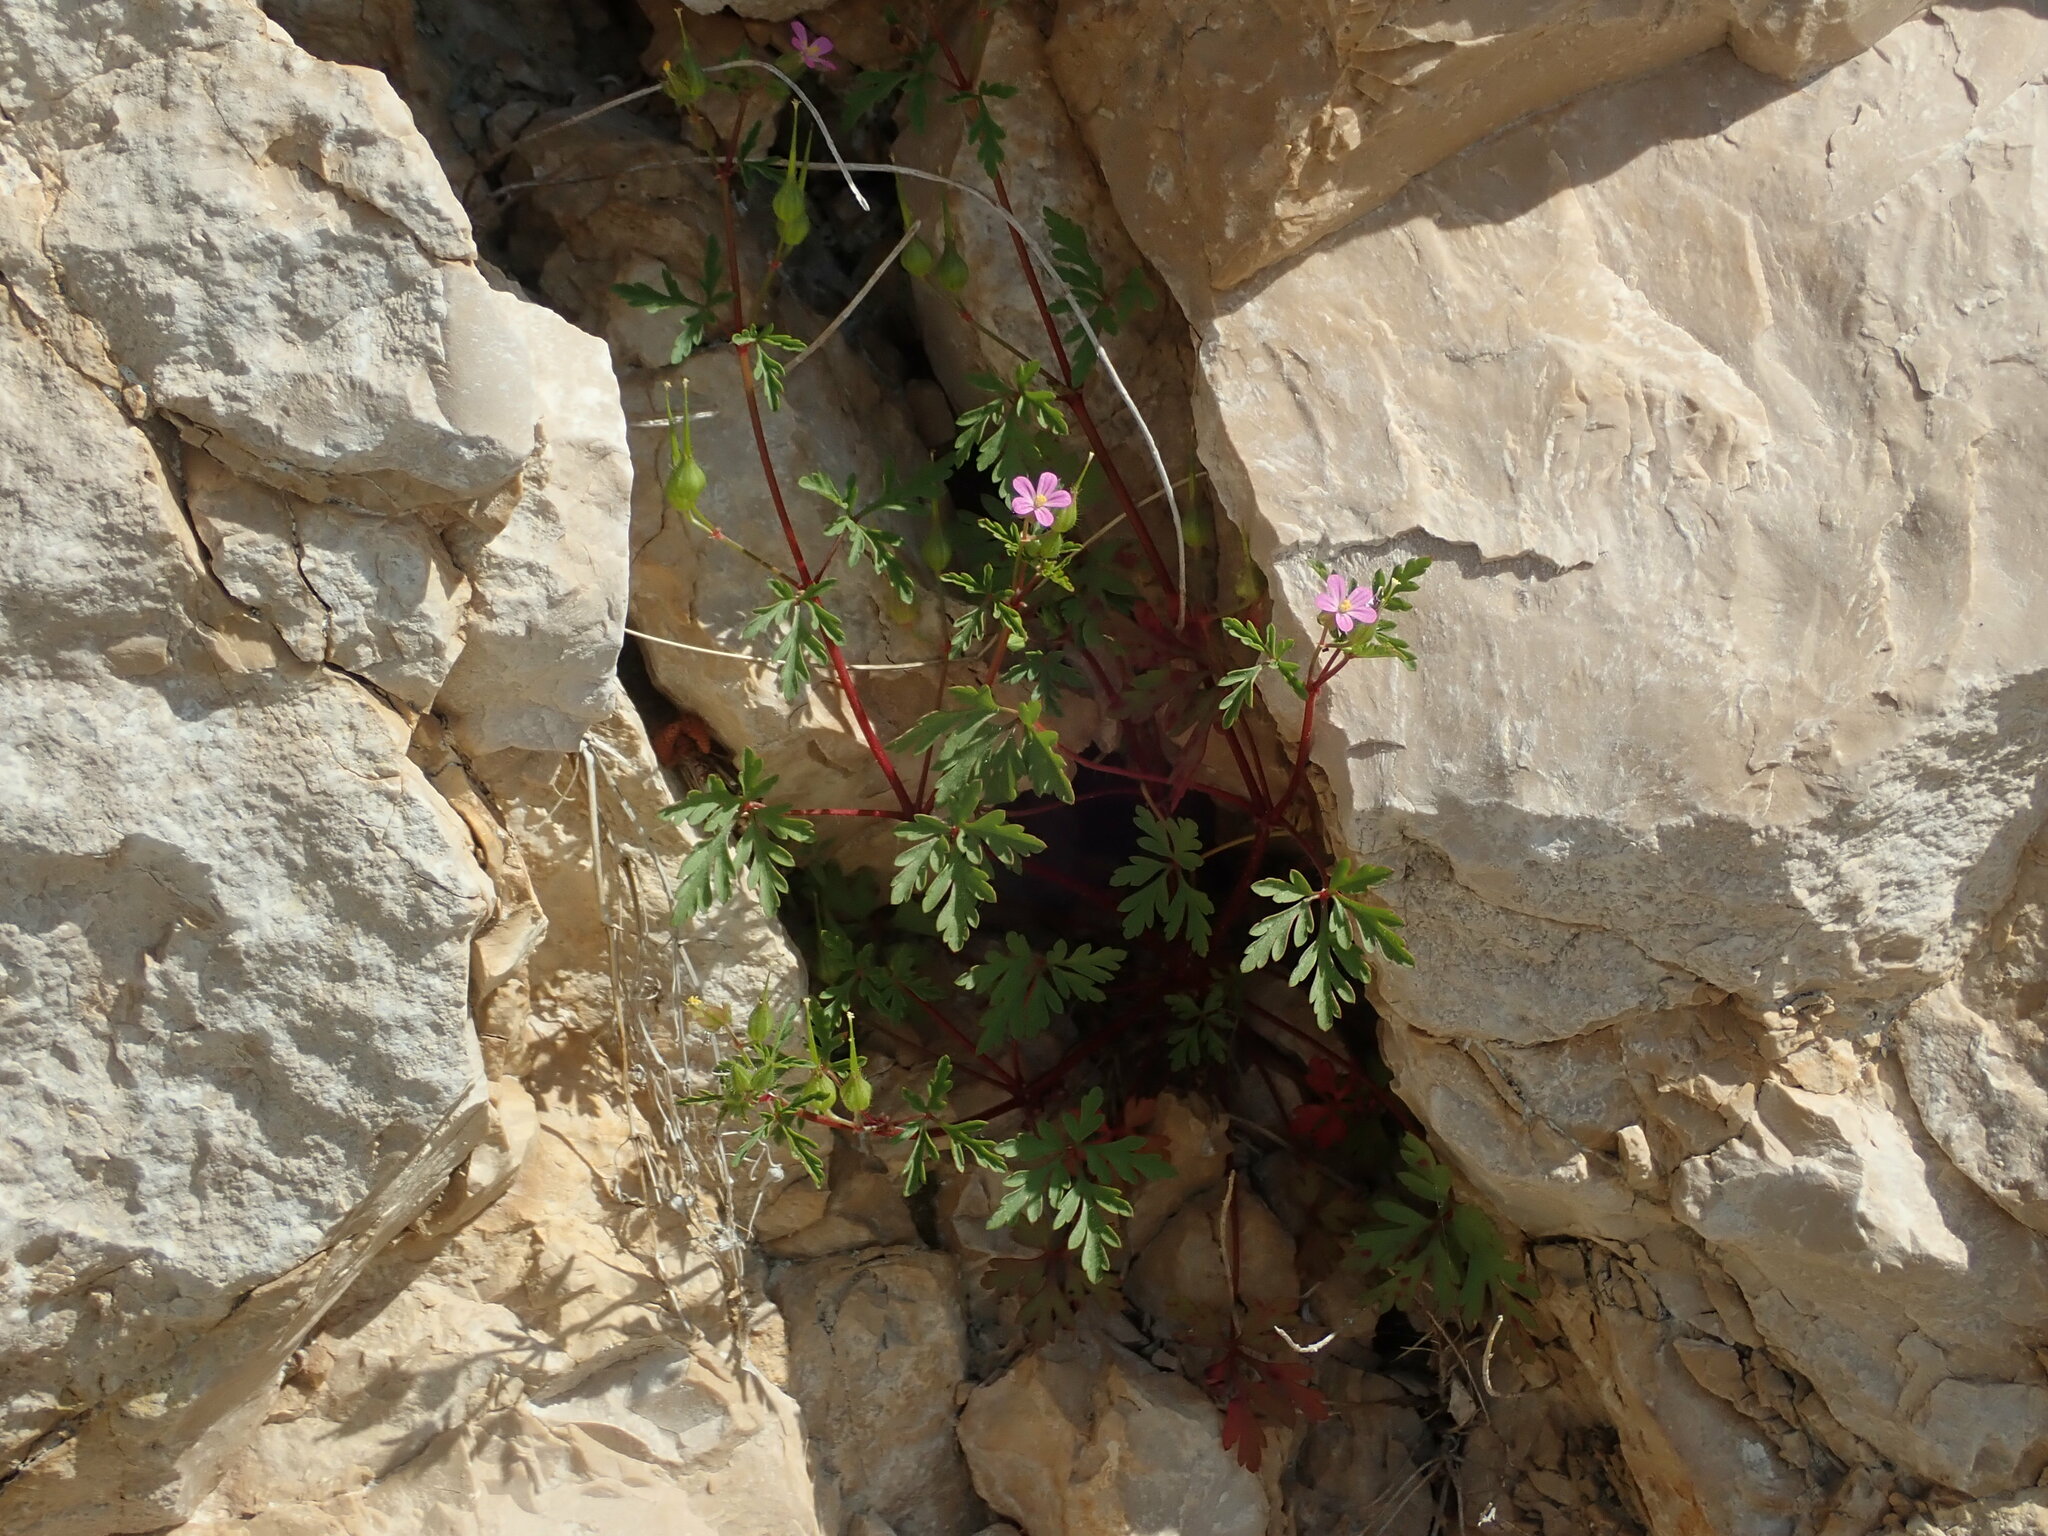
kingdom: Plantae
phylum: Tracheophyta
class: Magnoliopsida
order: Geraniales
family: Geraniaceae
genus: Geranium
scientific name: Geranium purpureum
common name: Little-robin
